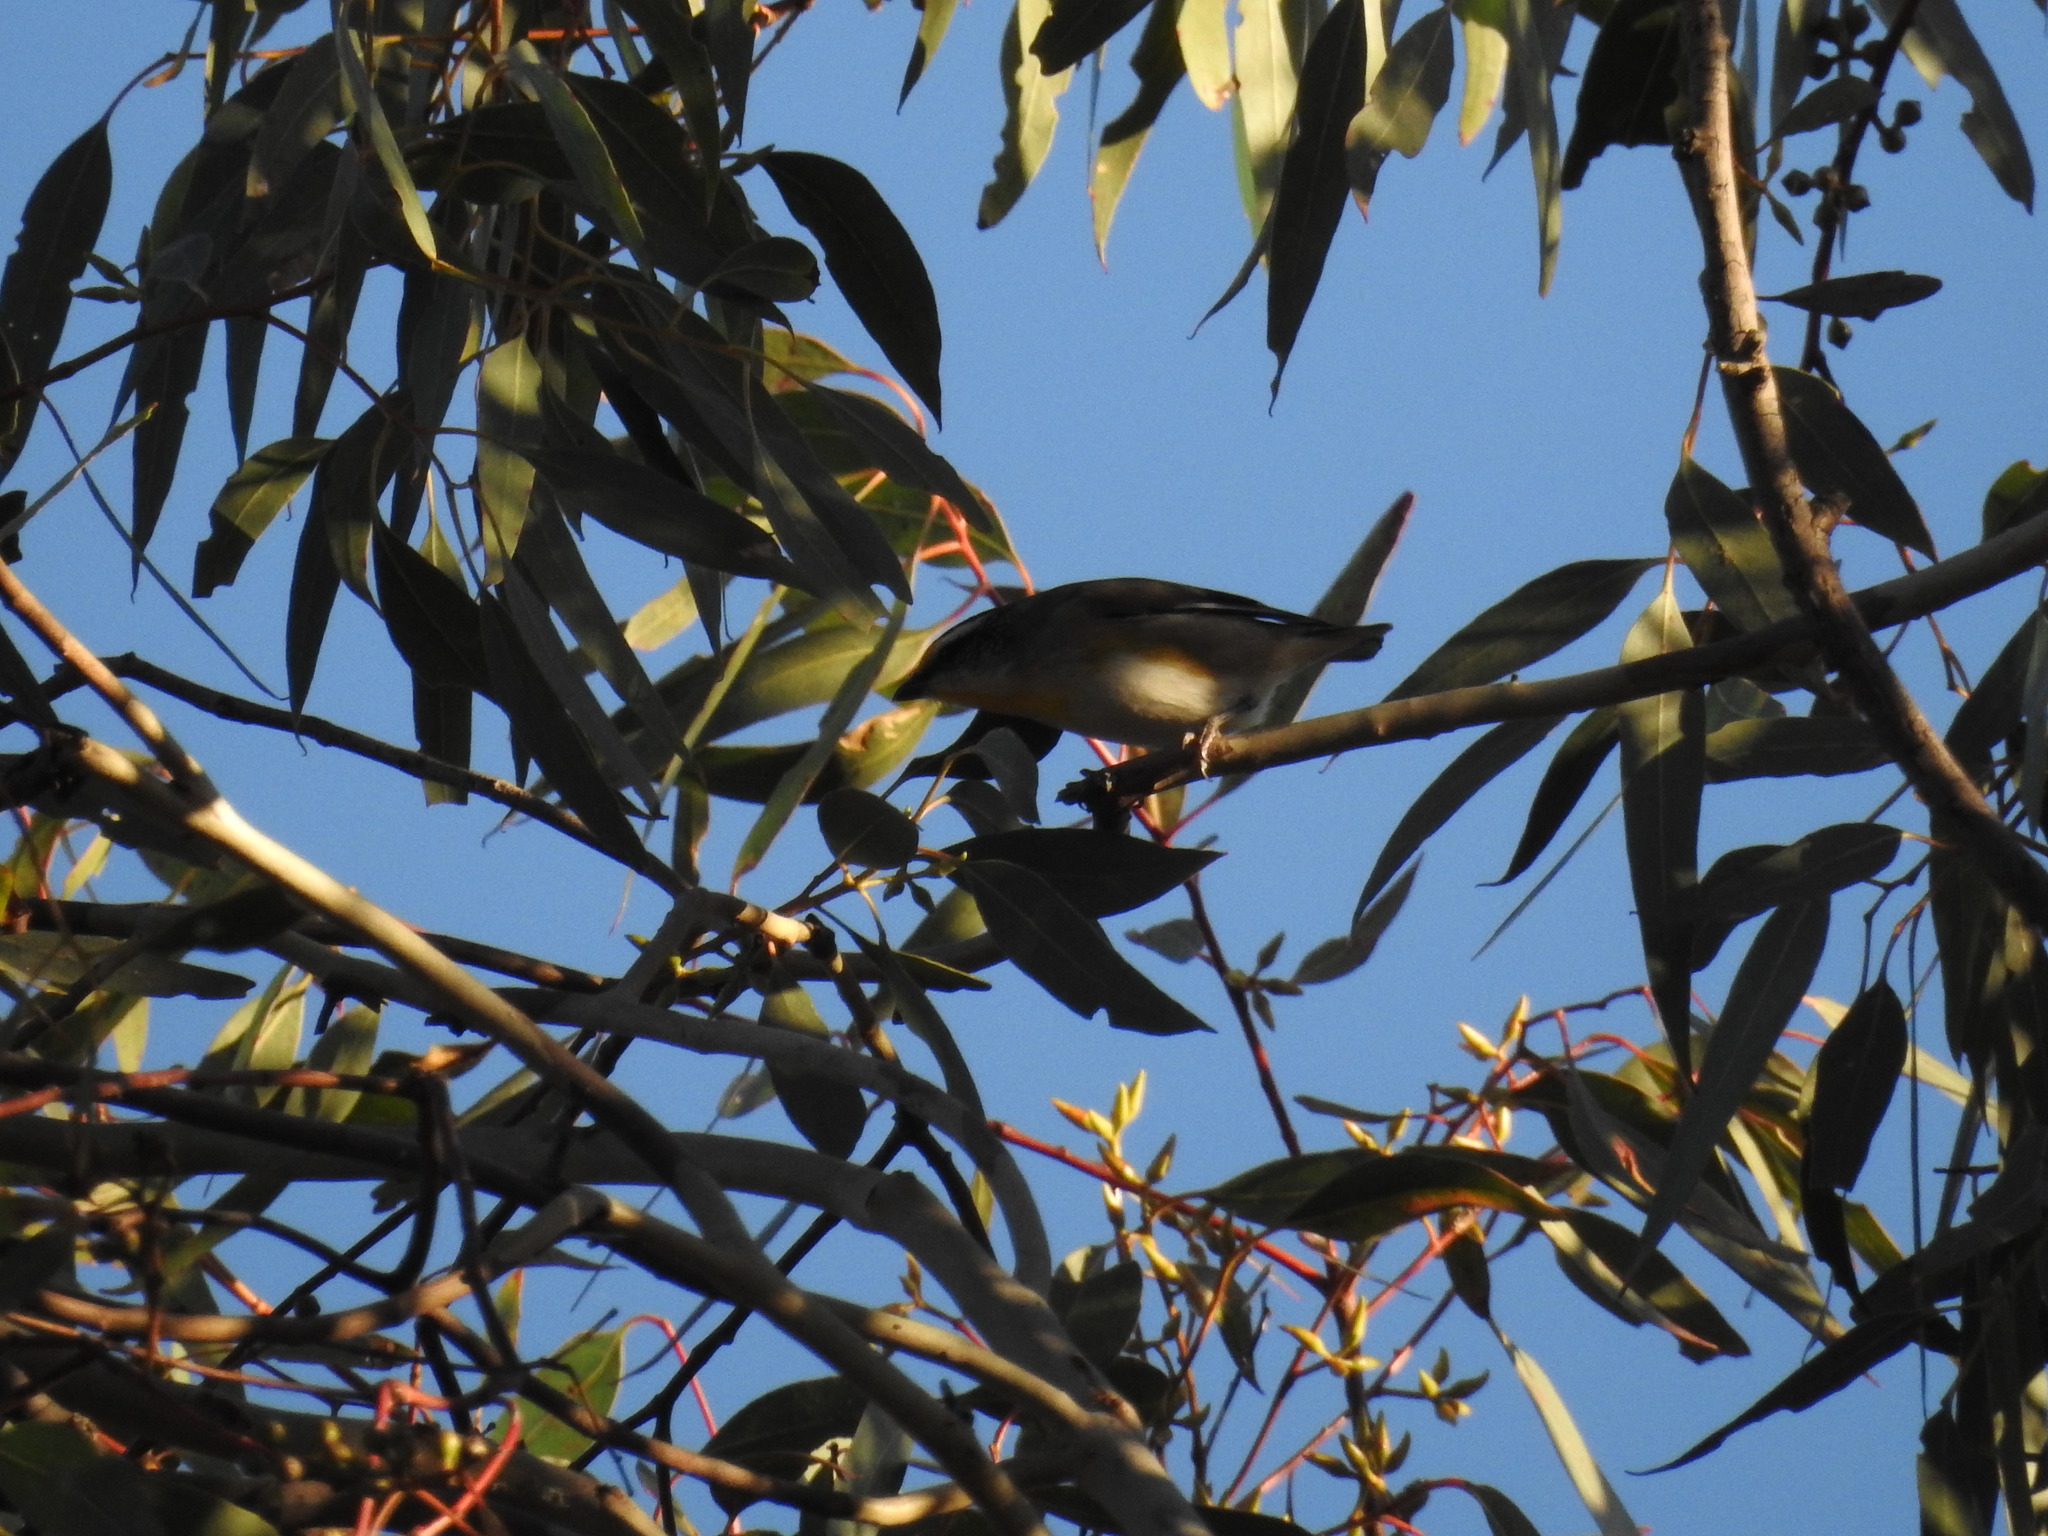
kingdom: Animalia
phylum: Chordata
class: Aves
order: Passeriformes
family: Pardalotidae
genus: Pardalotus
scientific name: Pardalotus striatus
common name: Striated pardalote
